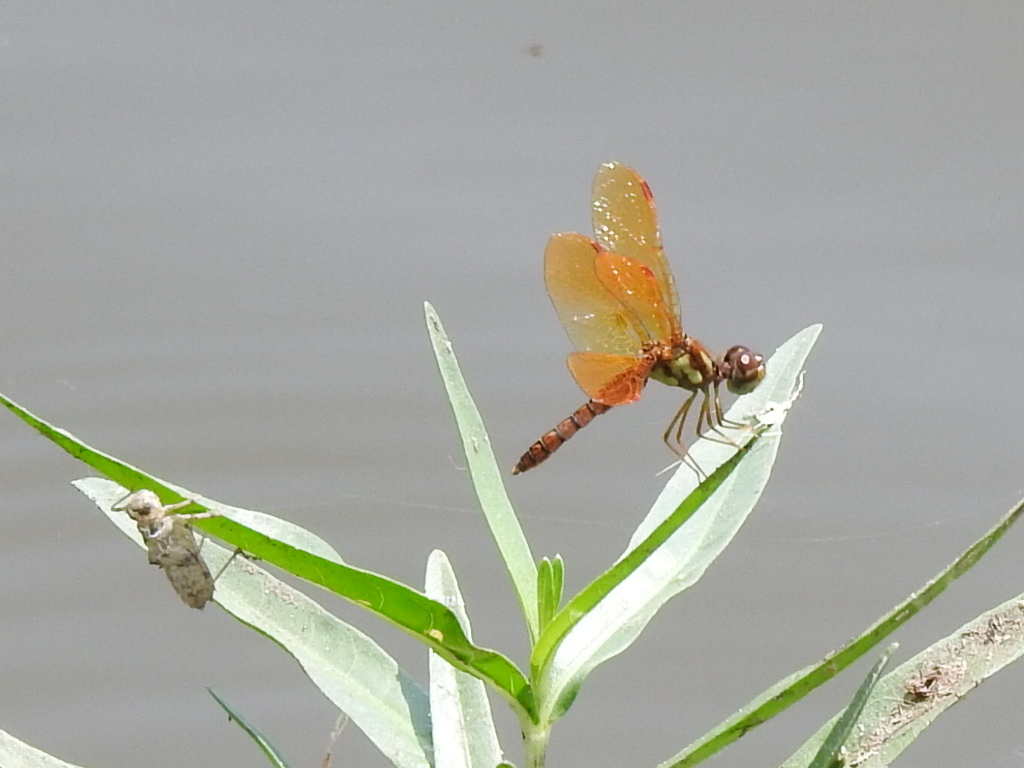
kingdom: Animalia
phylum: Arthropoda
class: Insecta
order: Odonata
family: Libellulidae
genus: Perithemis
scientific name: Perithemis tenera
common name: Eastern amberwing
